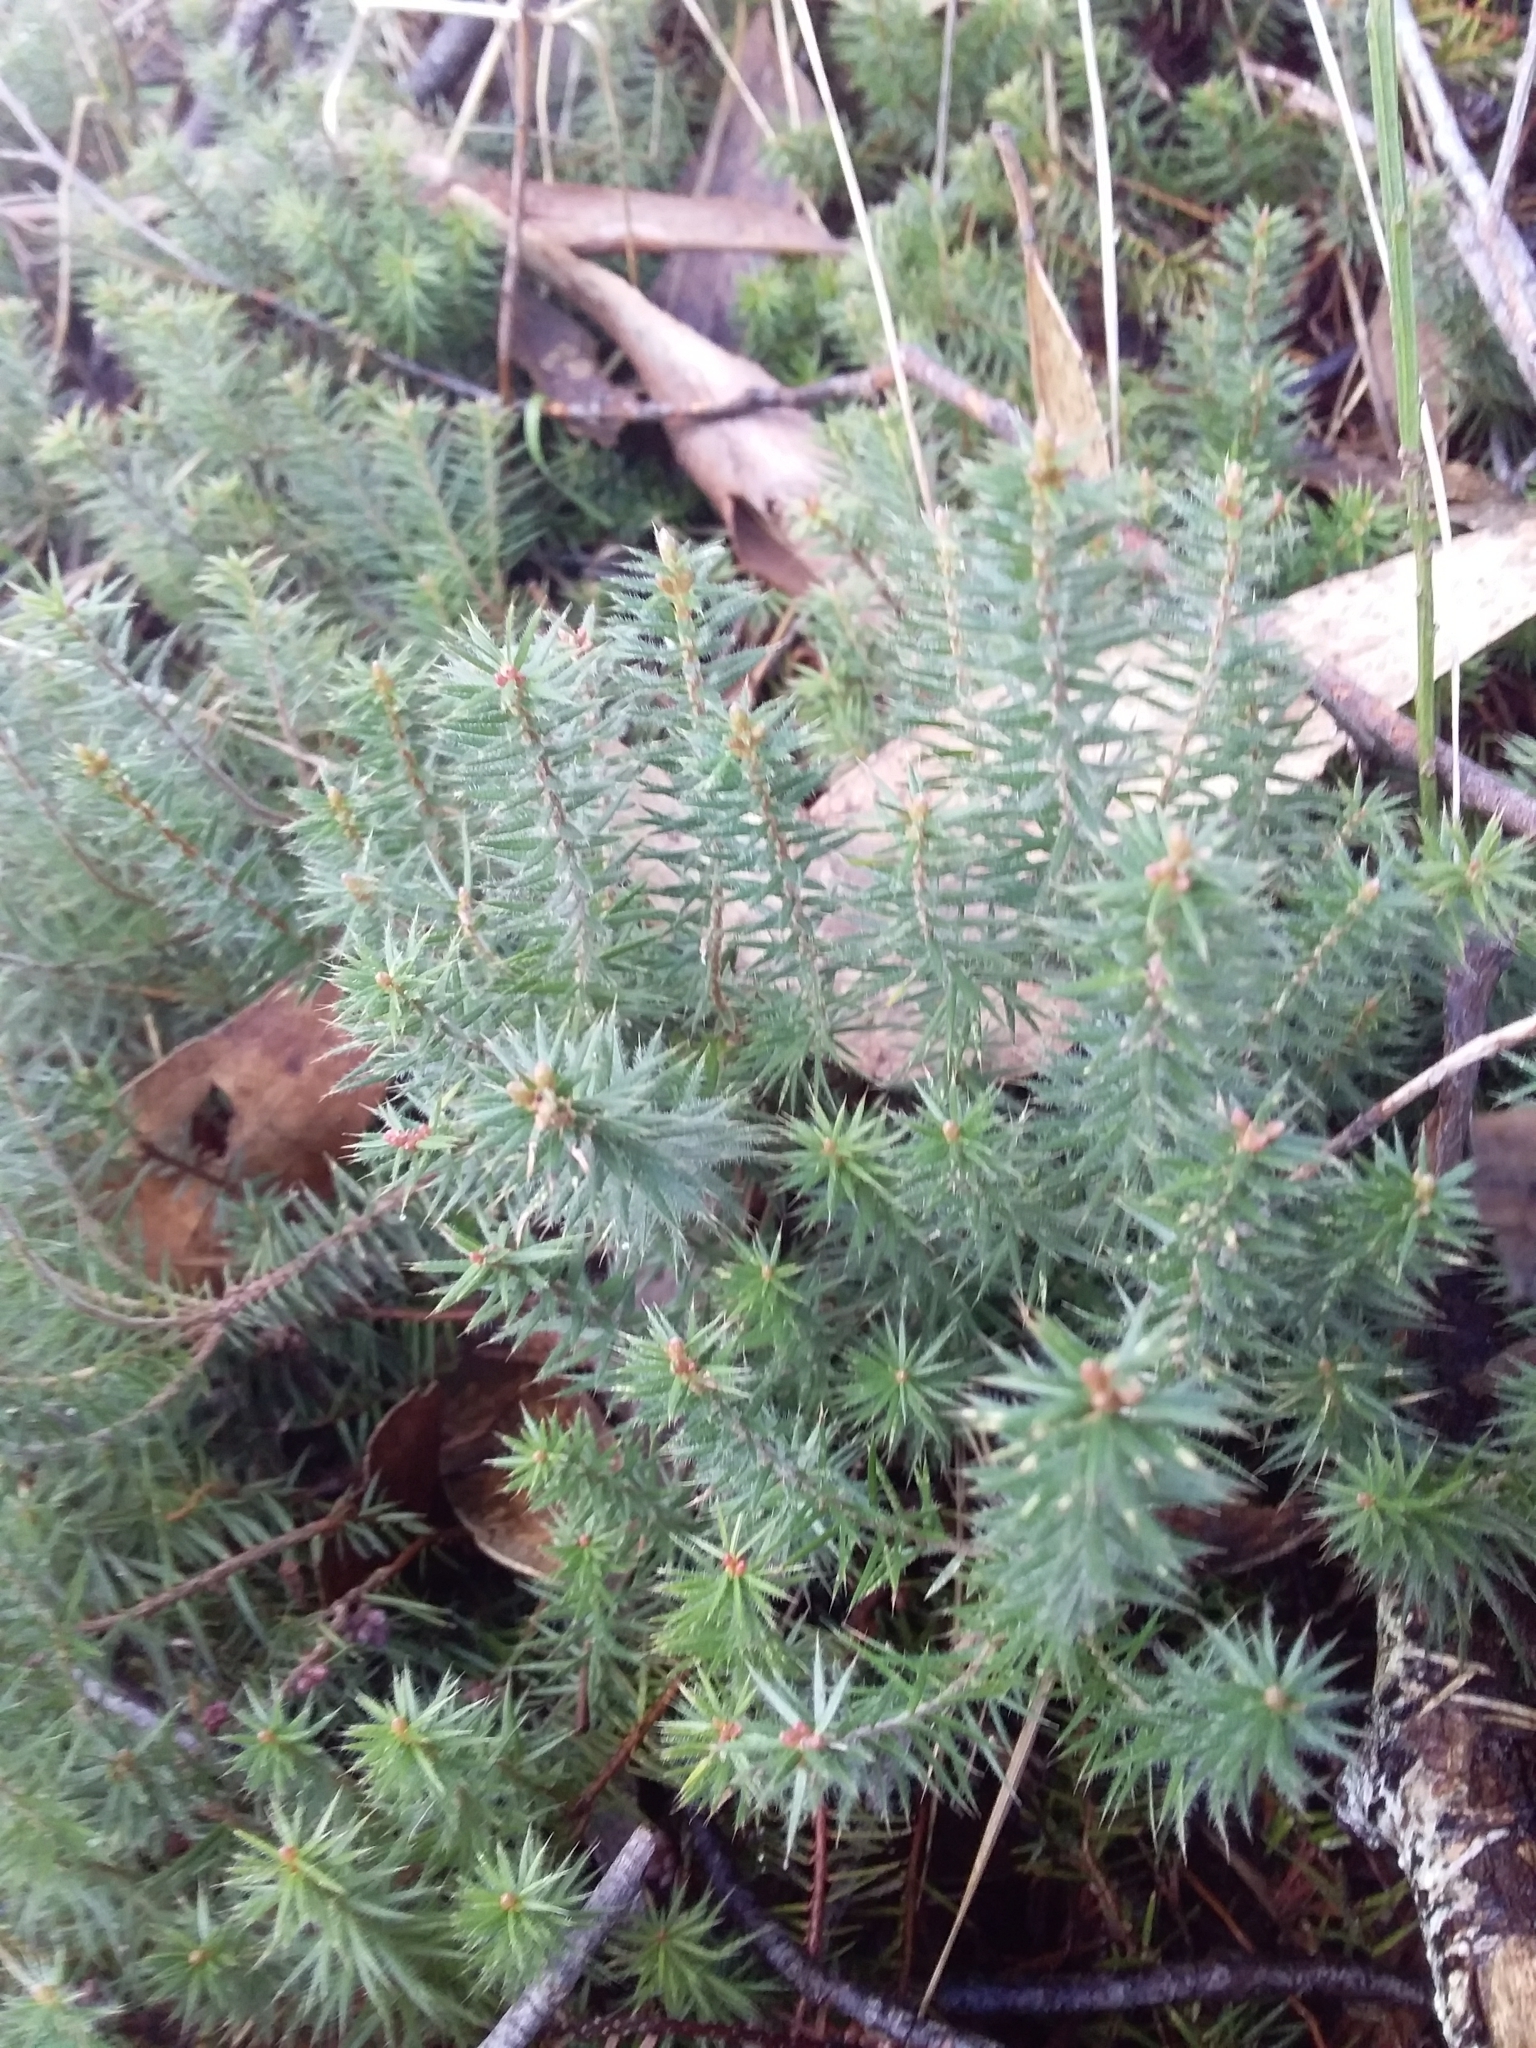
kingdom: Plantae
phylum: Tracheophyta
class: Magnoliopsida
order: Ericales
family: Ericaceae
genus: Acrotriche
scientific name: Acrotriche serrulata
